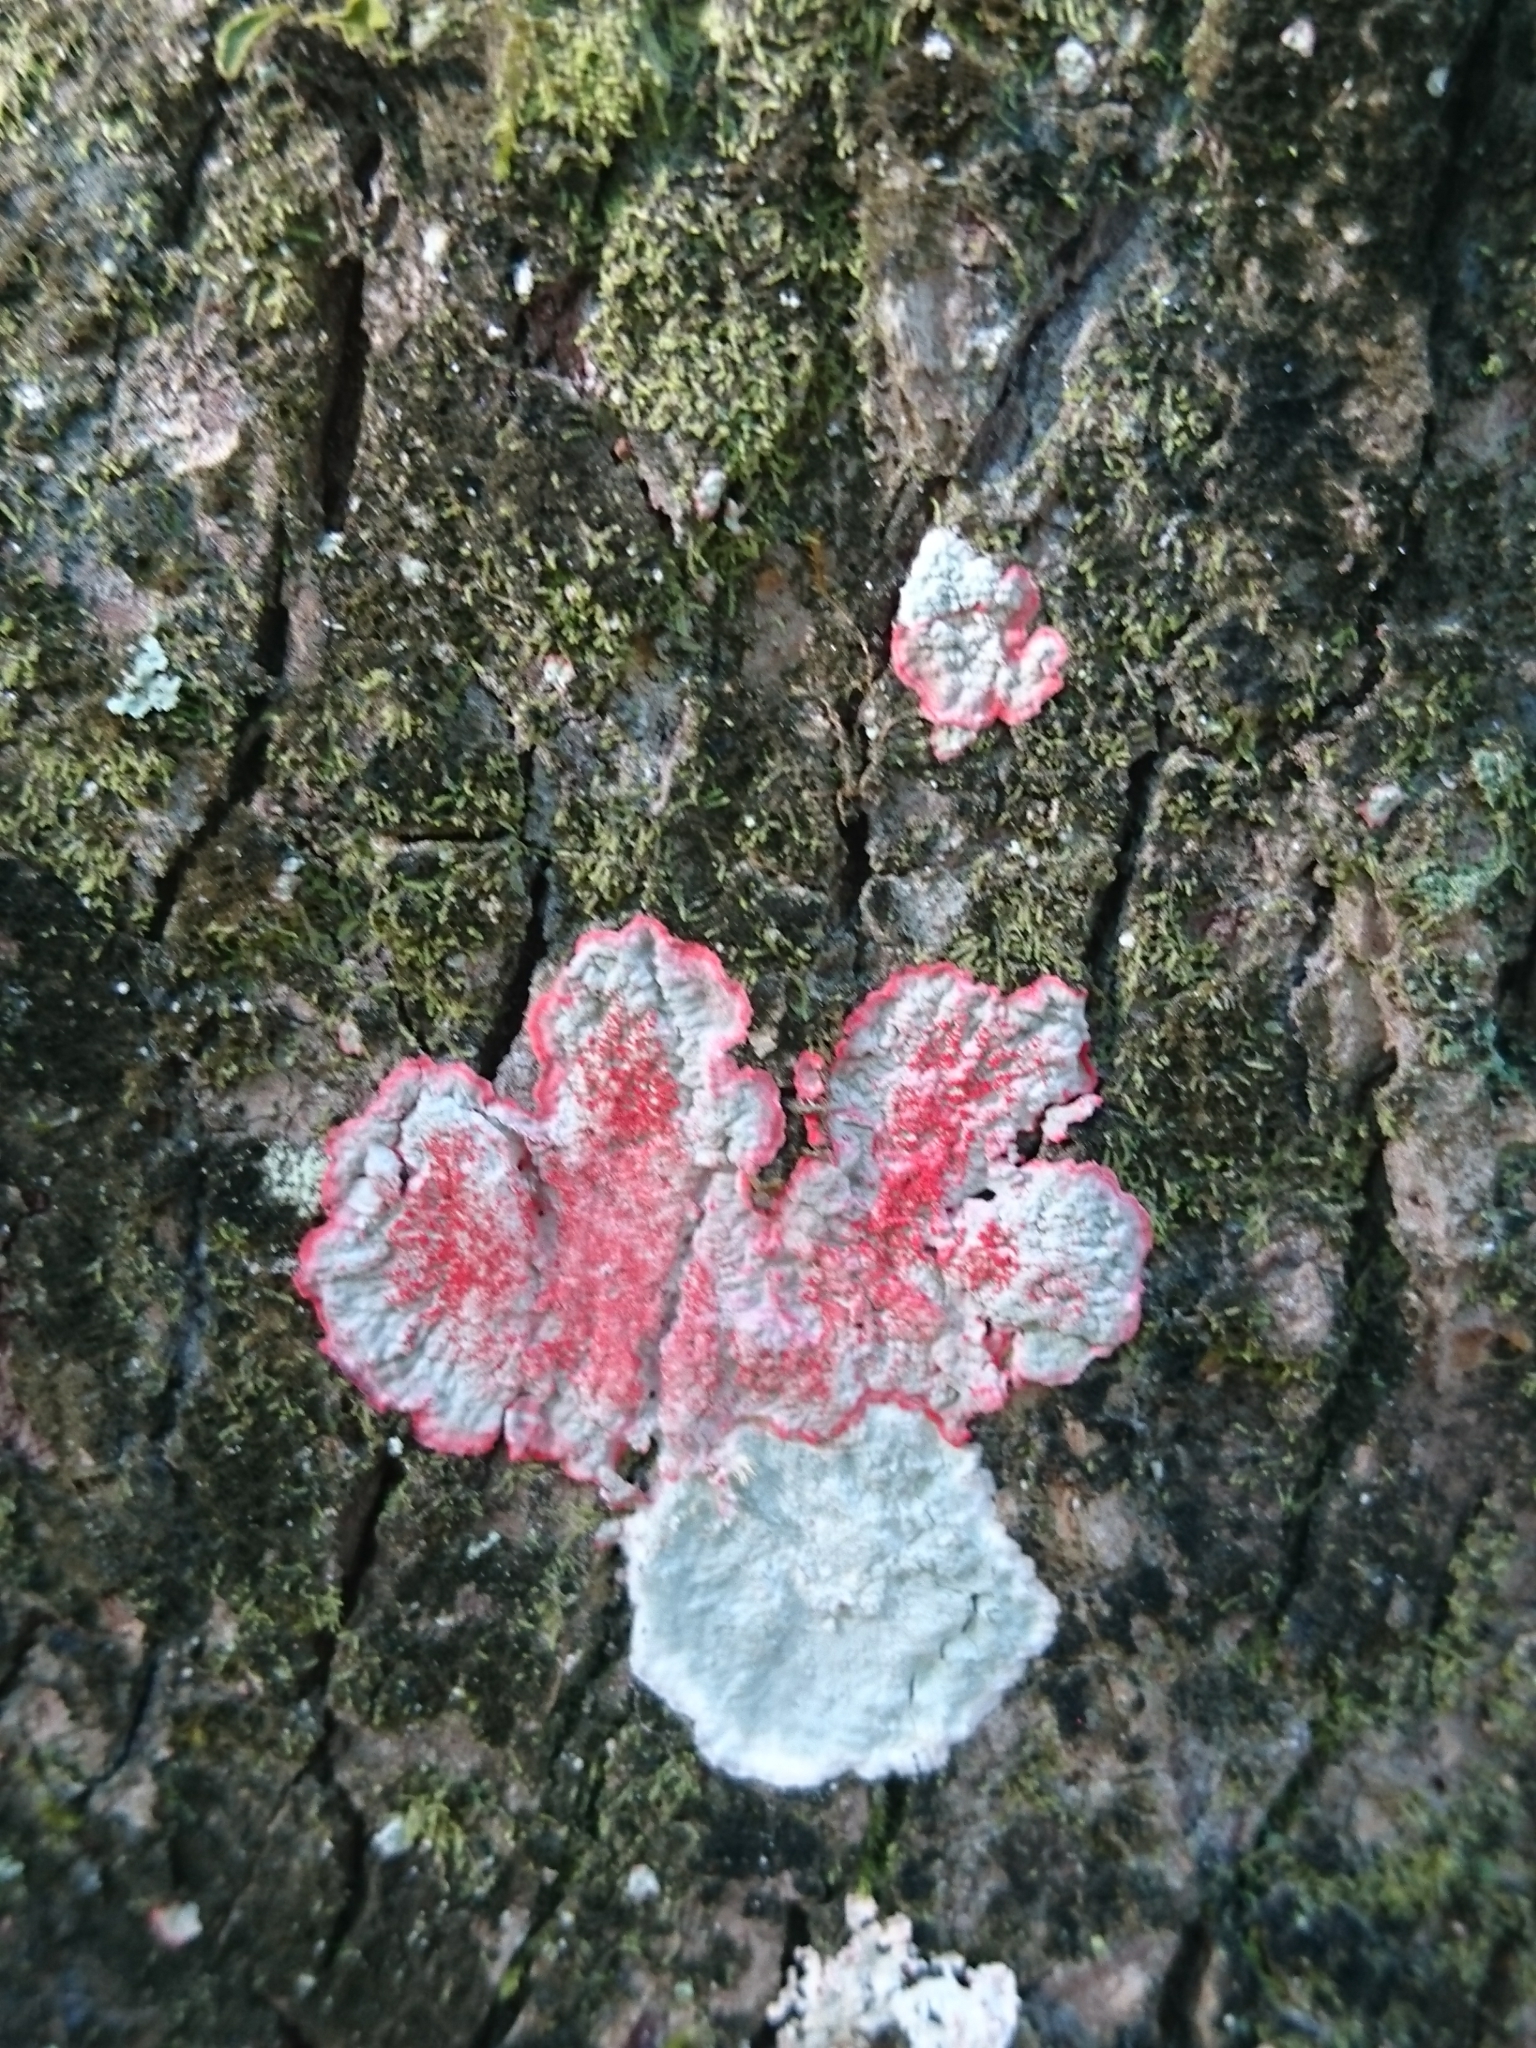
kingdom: Fungi
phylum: Ascomycota
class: Arthoniomycetes
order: Arthoniales
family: Arthoniaceae
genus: Herpothallon
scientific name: Herpothallon rubrocinctum
